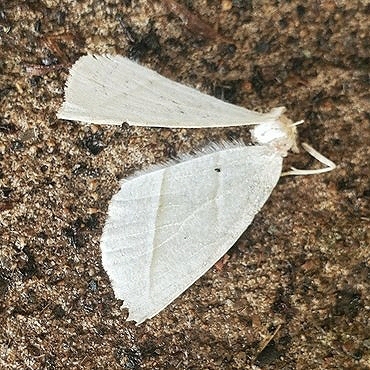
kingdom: Animalia
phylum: Arthropoda
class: Insecta
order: Lepidoptera
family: Geometridae
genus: Campaea
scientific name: Campaea perlata
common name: Fringed looper
